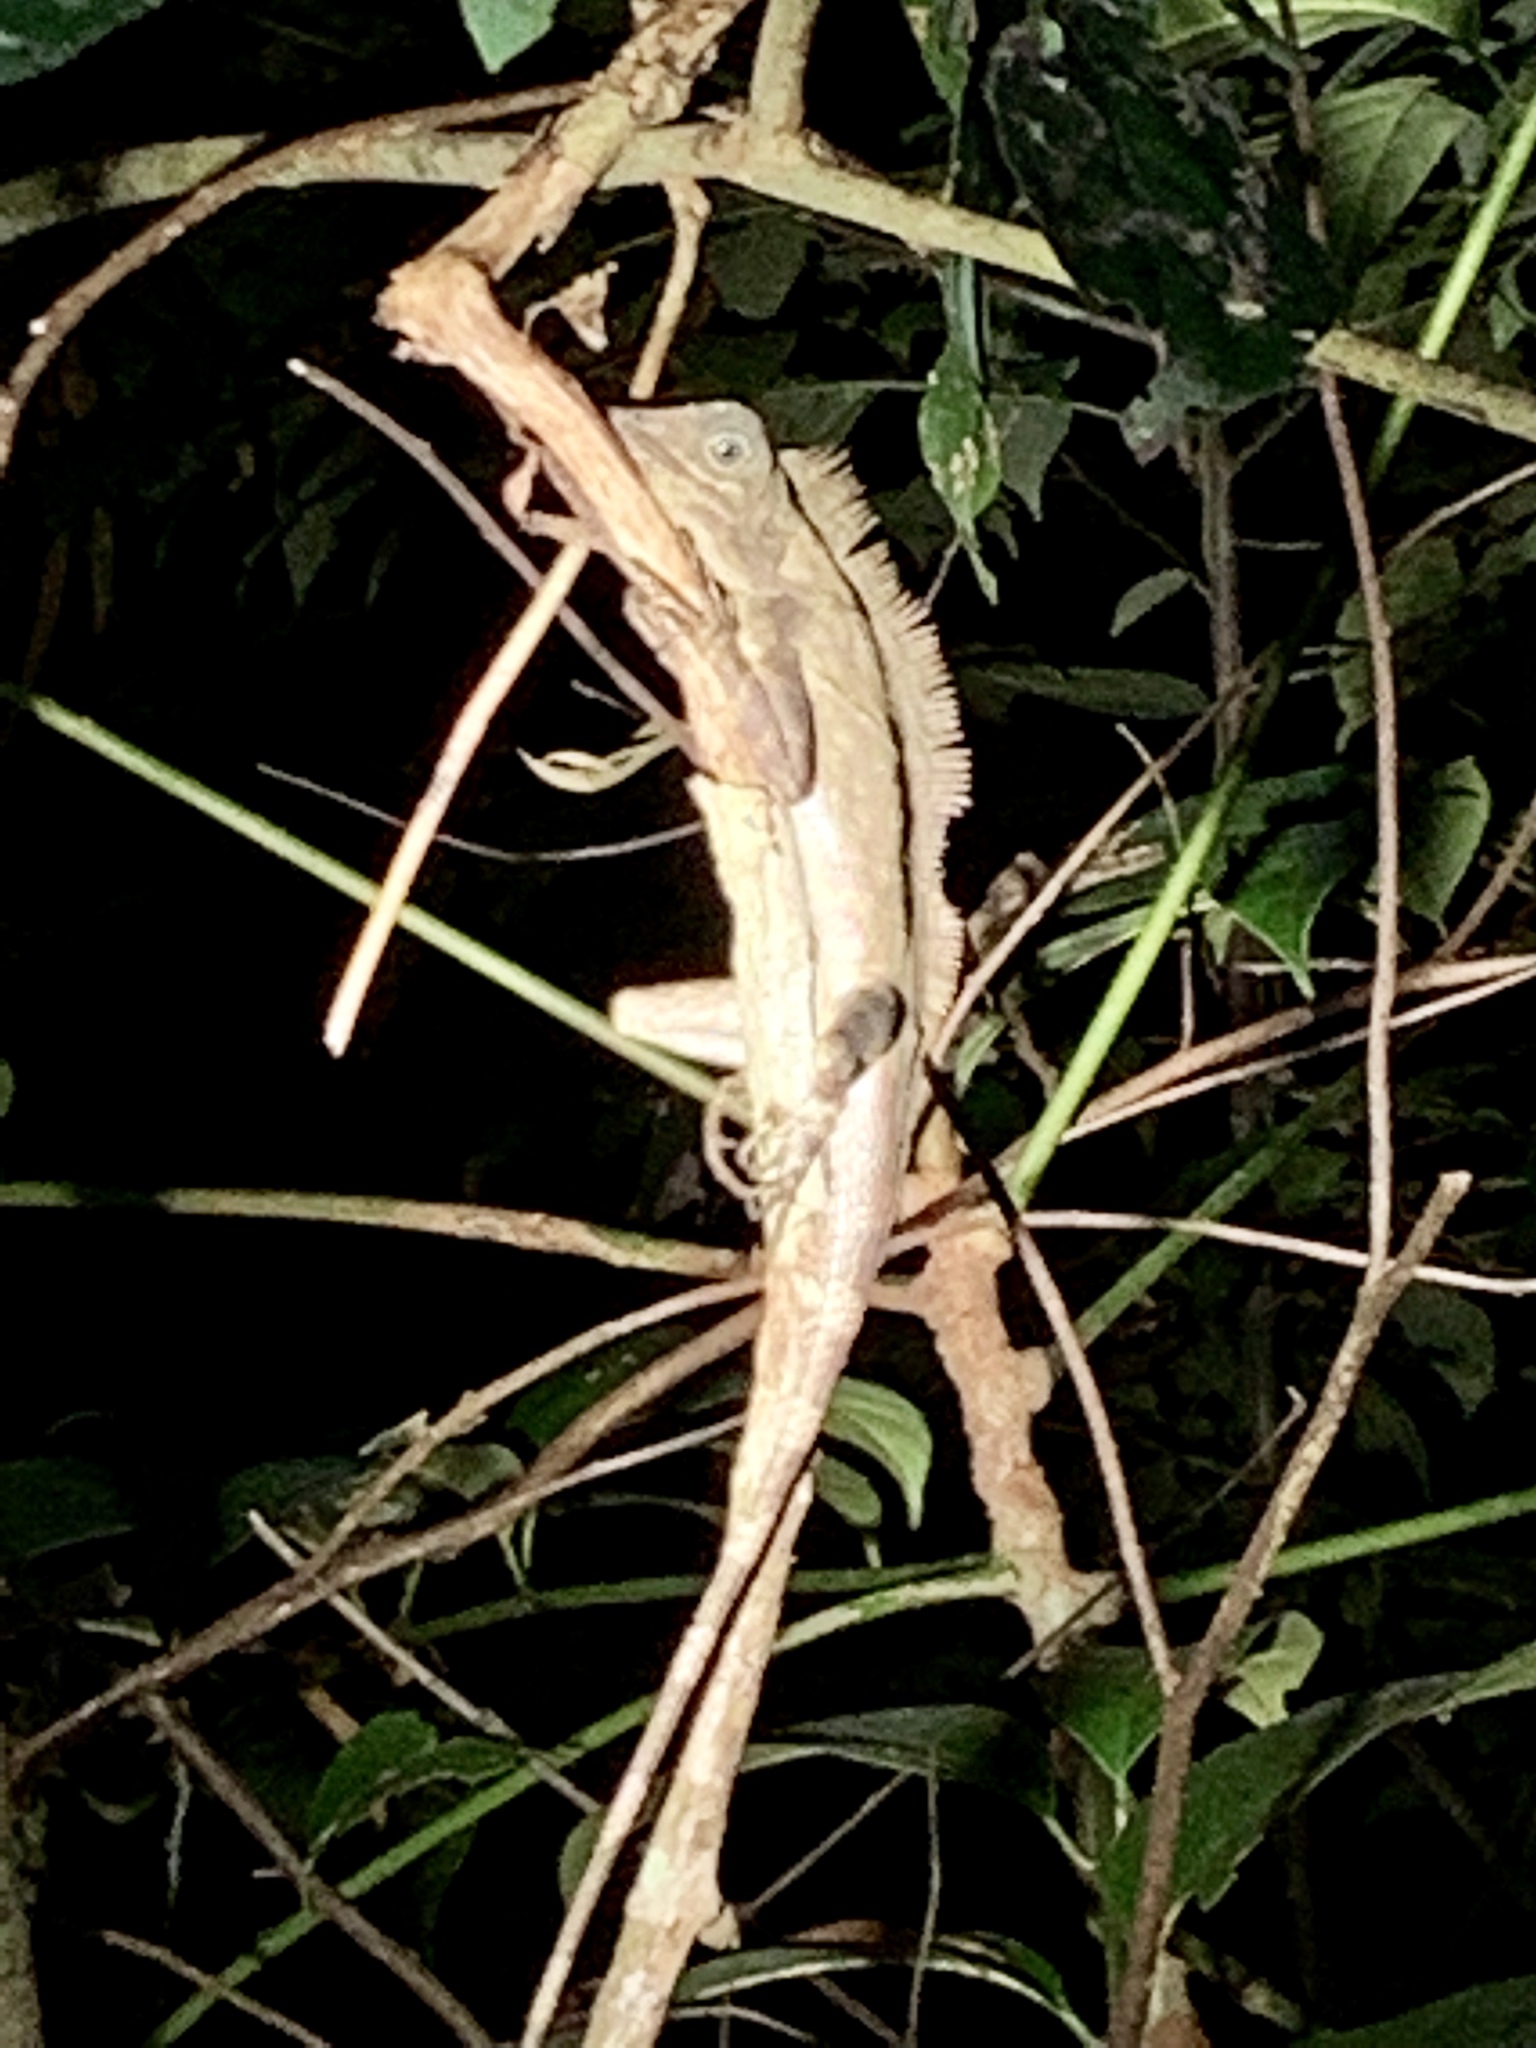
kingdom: Animalia
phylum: Chordata
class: Squamata
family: Agamidae
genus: Gonocephalus
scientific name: Gonocephalus bornensis
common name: Borneo forest dragon
